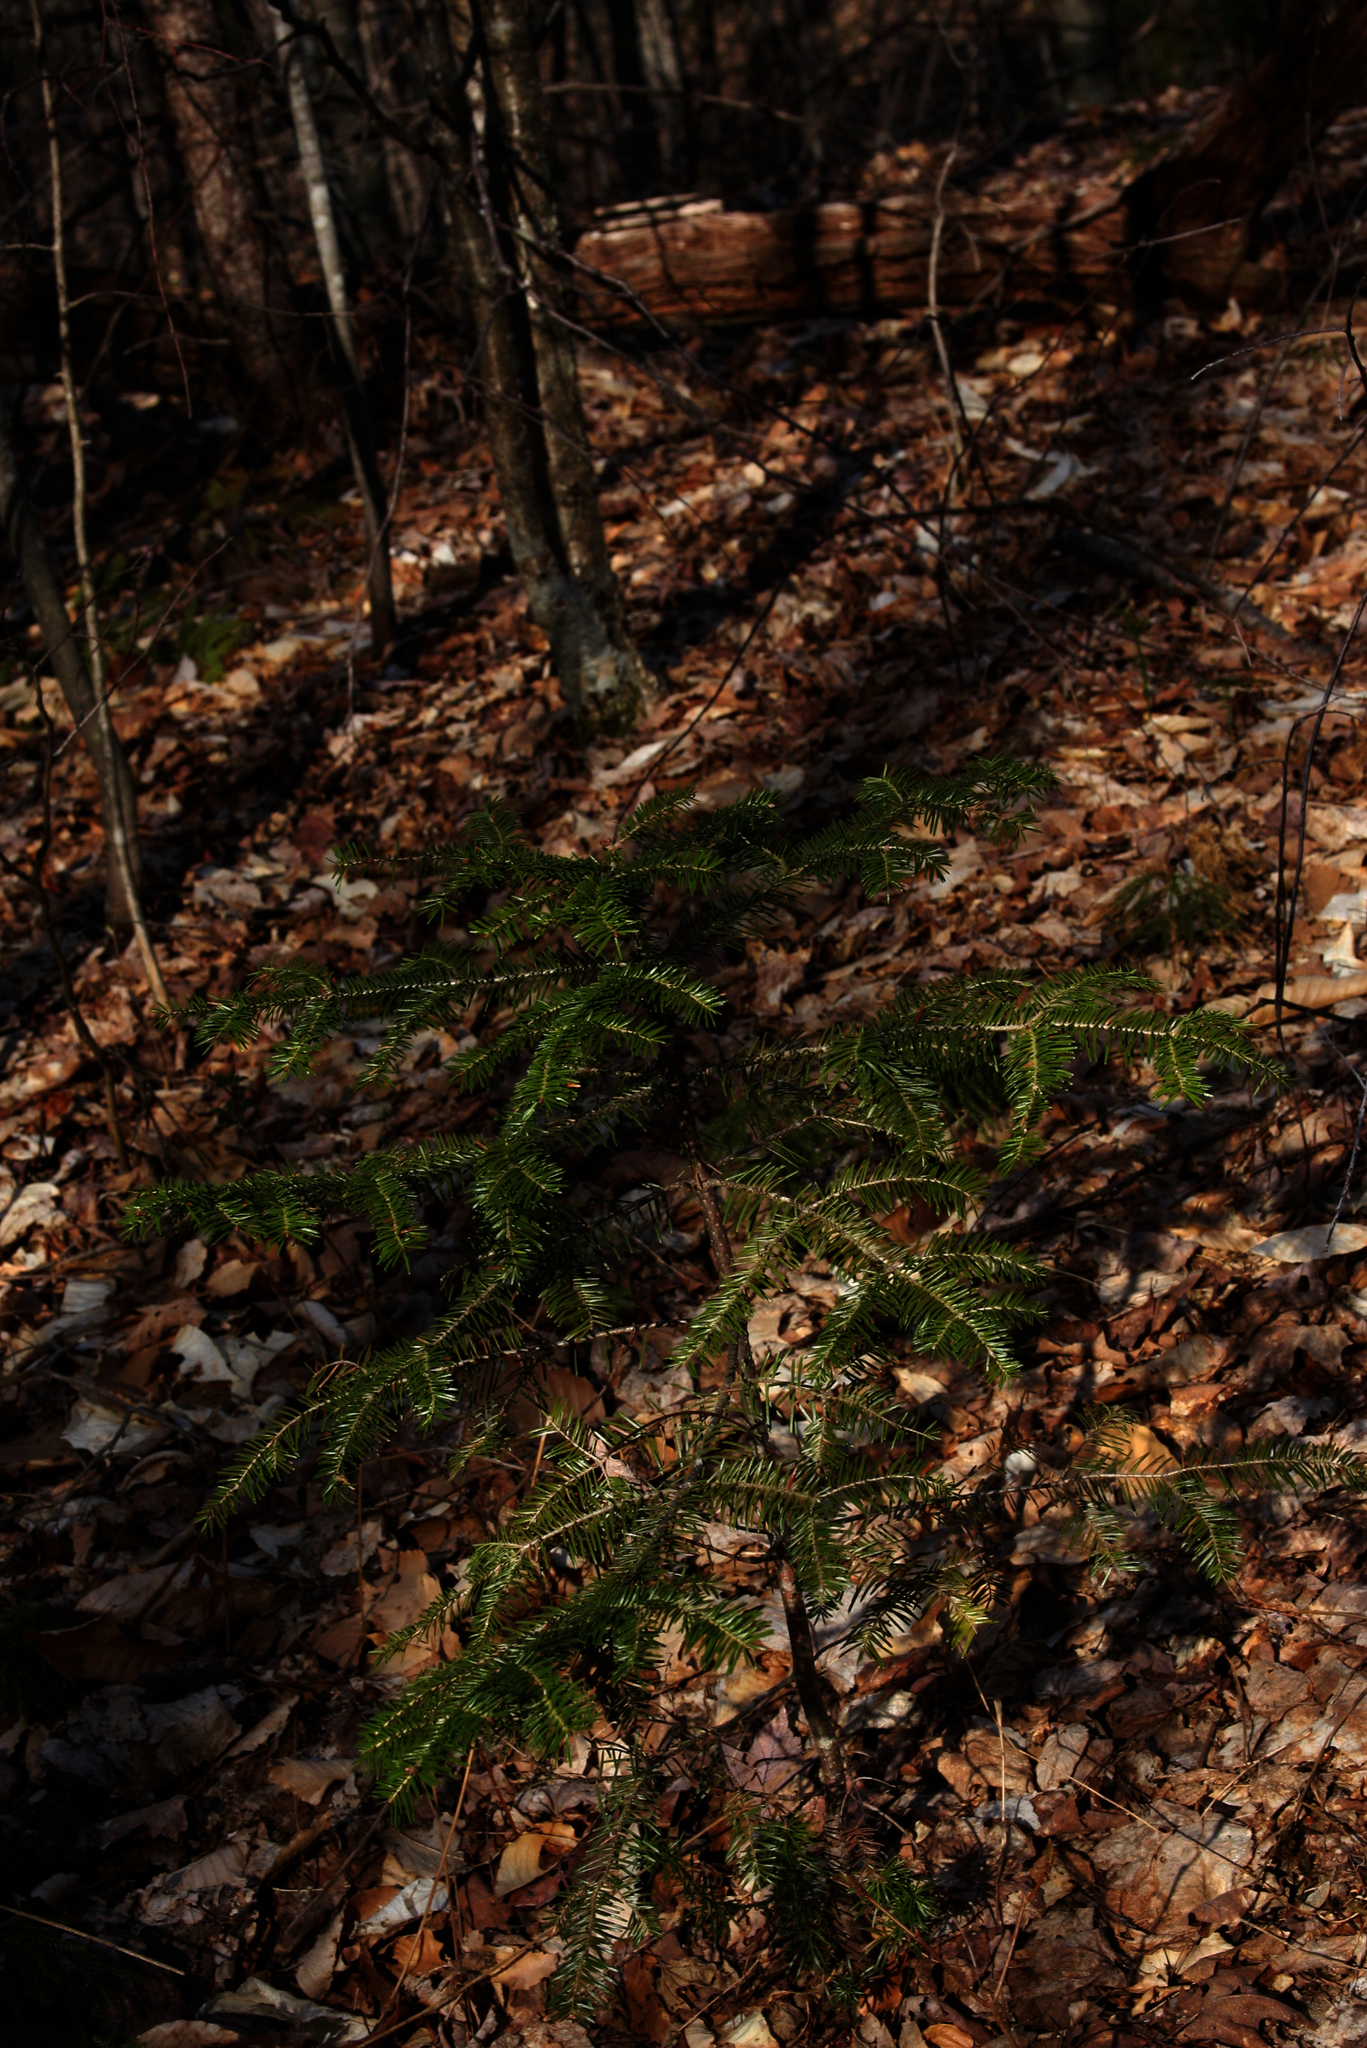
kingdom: Plantae
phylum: Tracheophyta
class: Pinopsida
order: Pinales
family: Pinaceae
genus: Abies
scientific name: Abies balsamea
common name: Balsam fir
